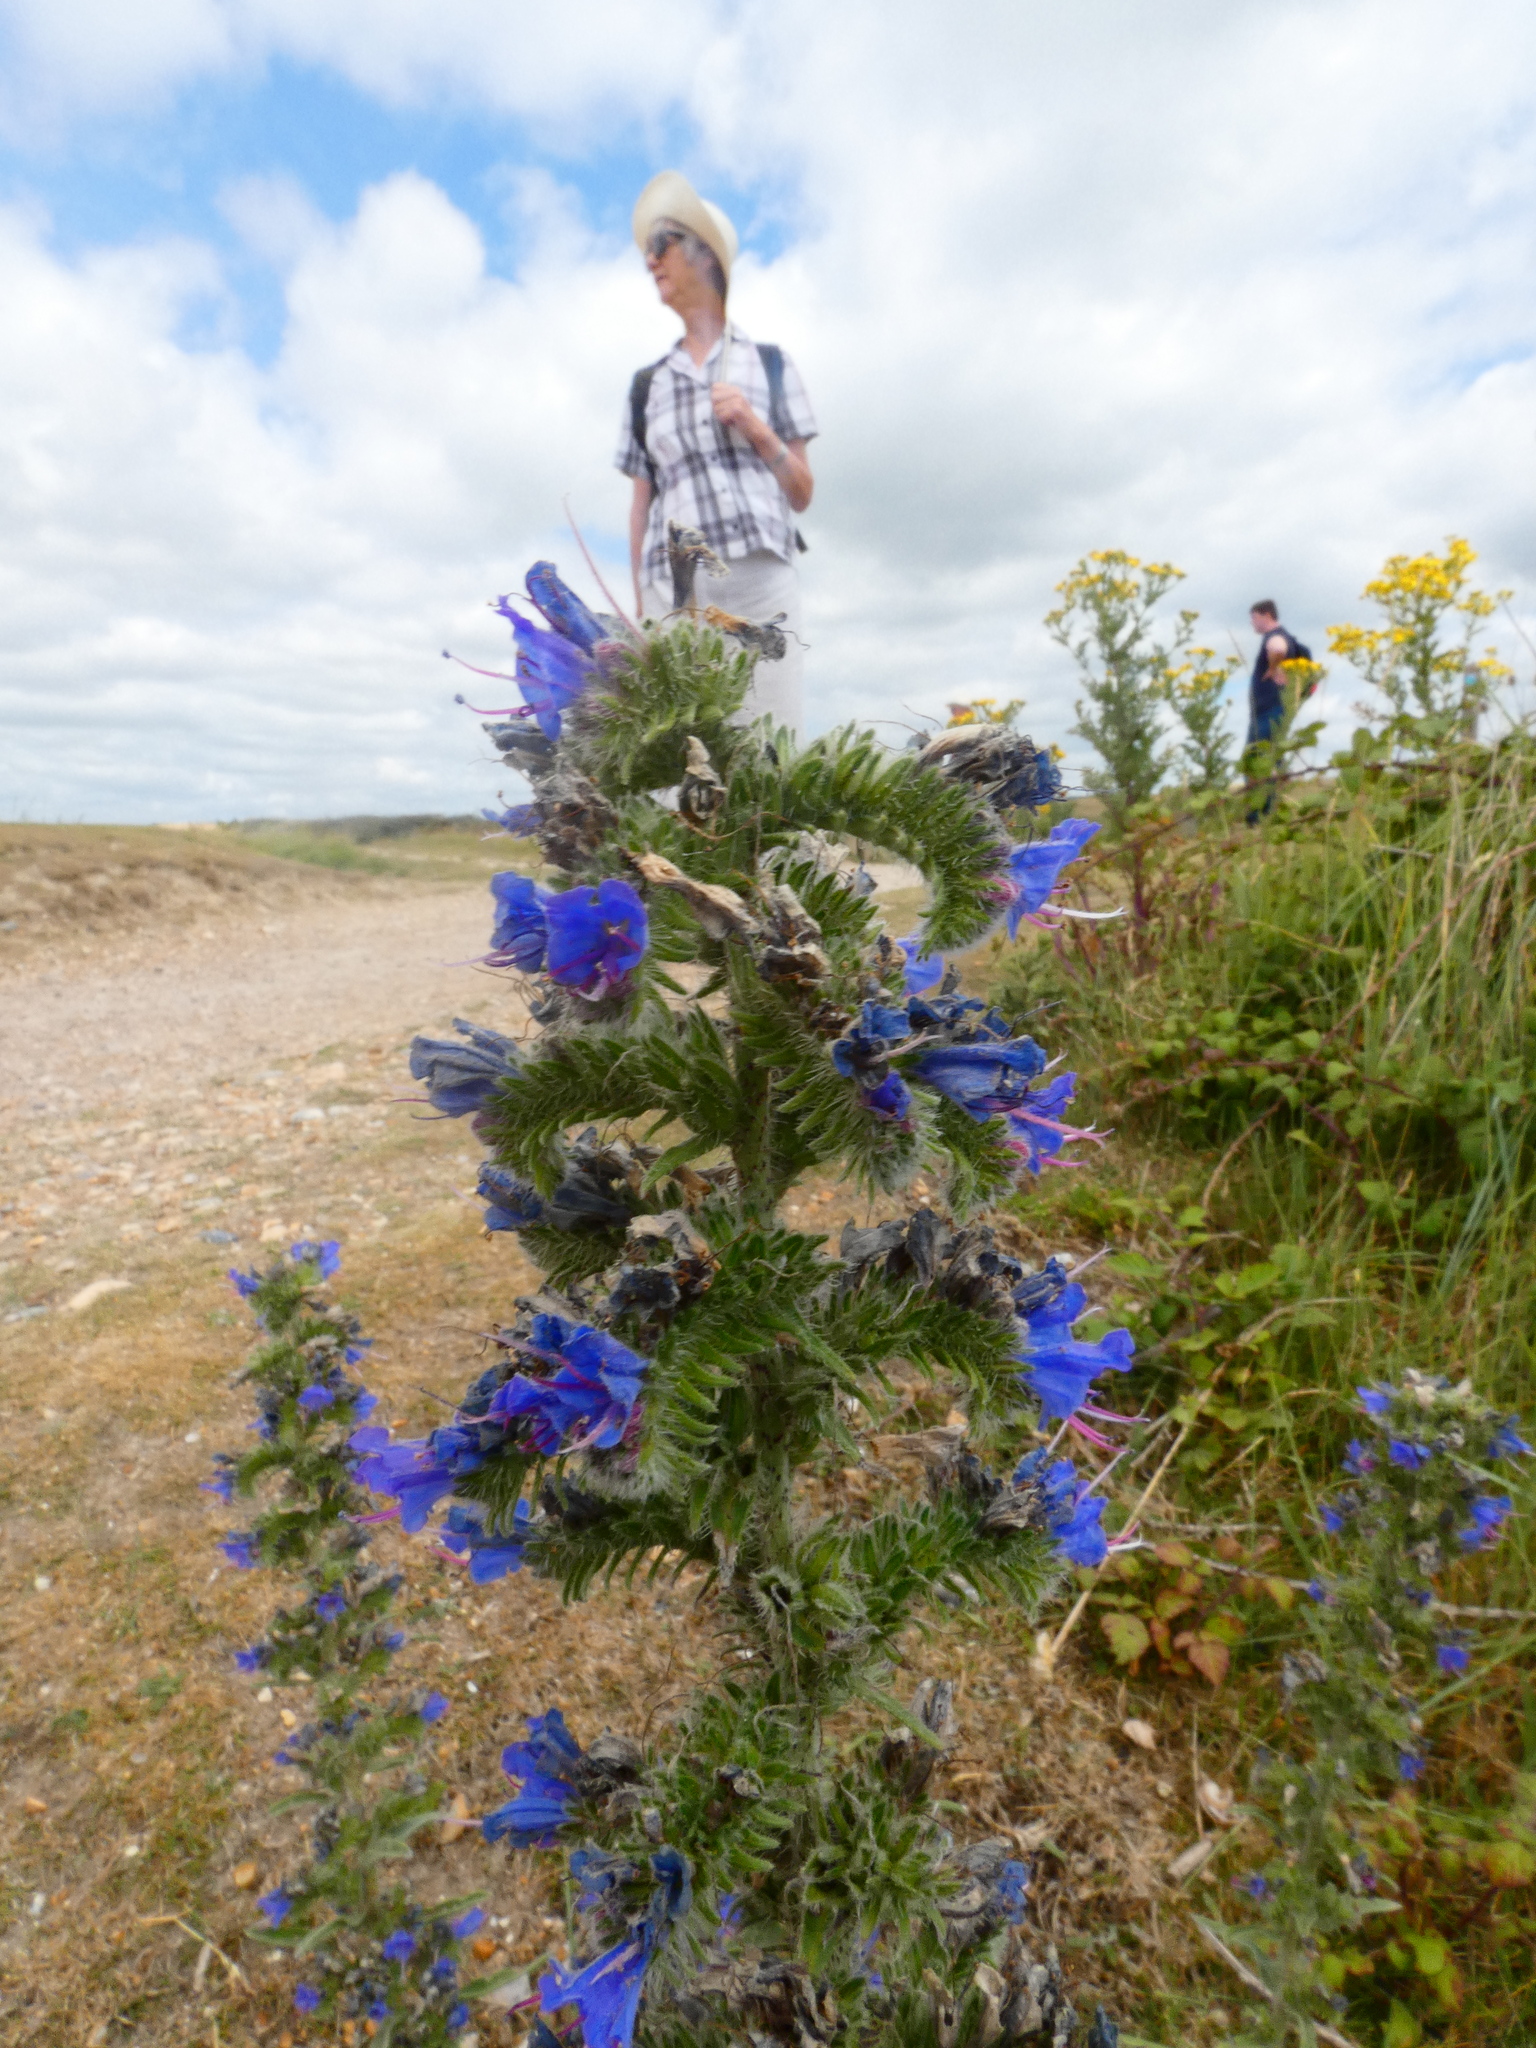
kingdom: Plantae
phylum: Tracheophyta
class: Magnoliopsida
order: Boraginales
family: Boraginaceae
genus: Echium
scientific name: Echium vulgare
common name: Common viper's bugloss
